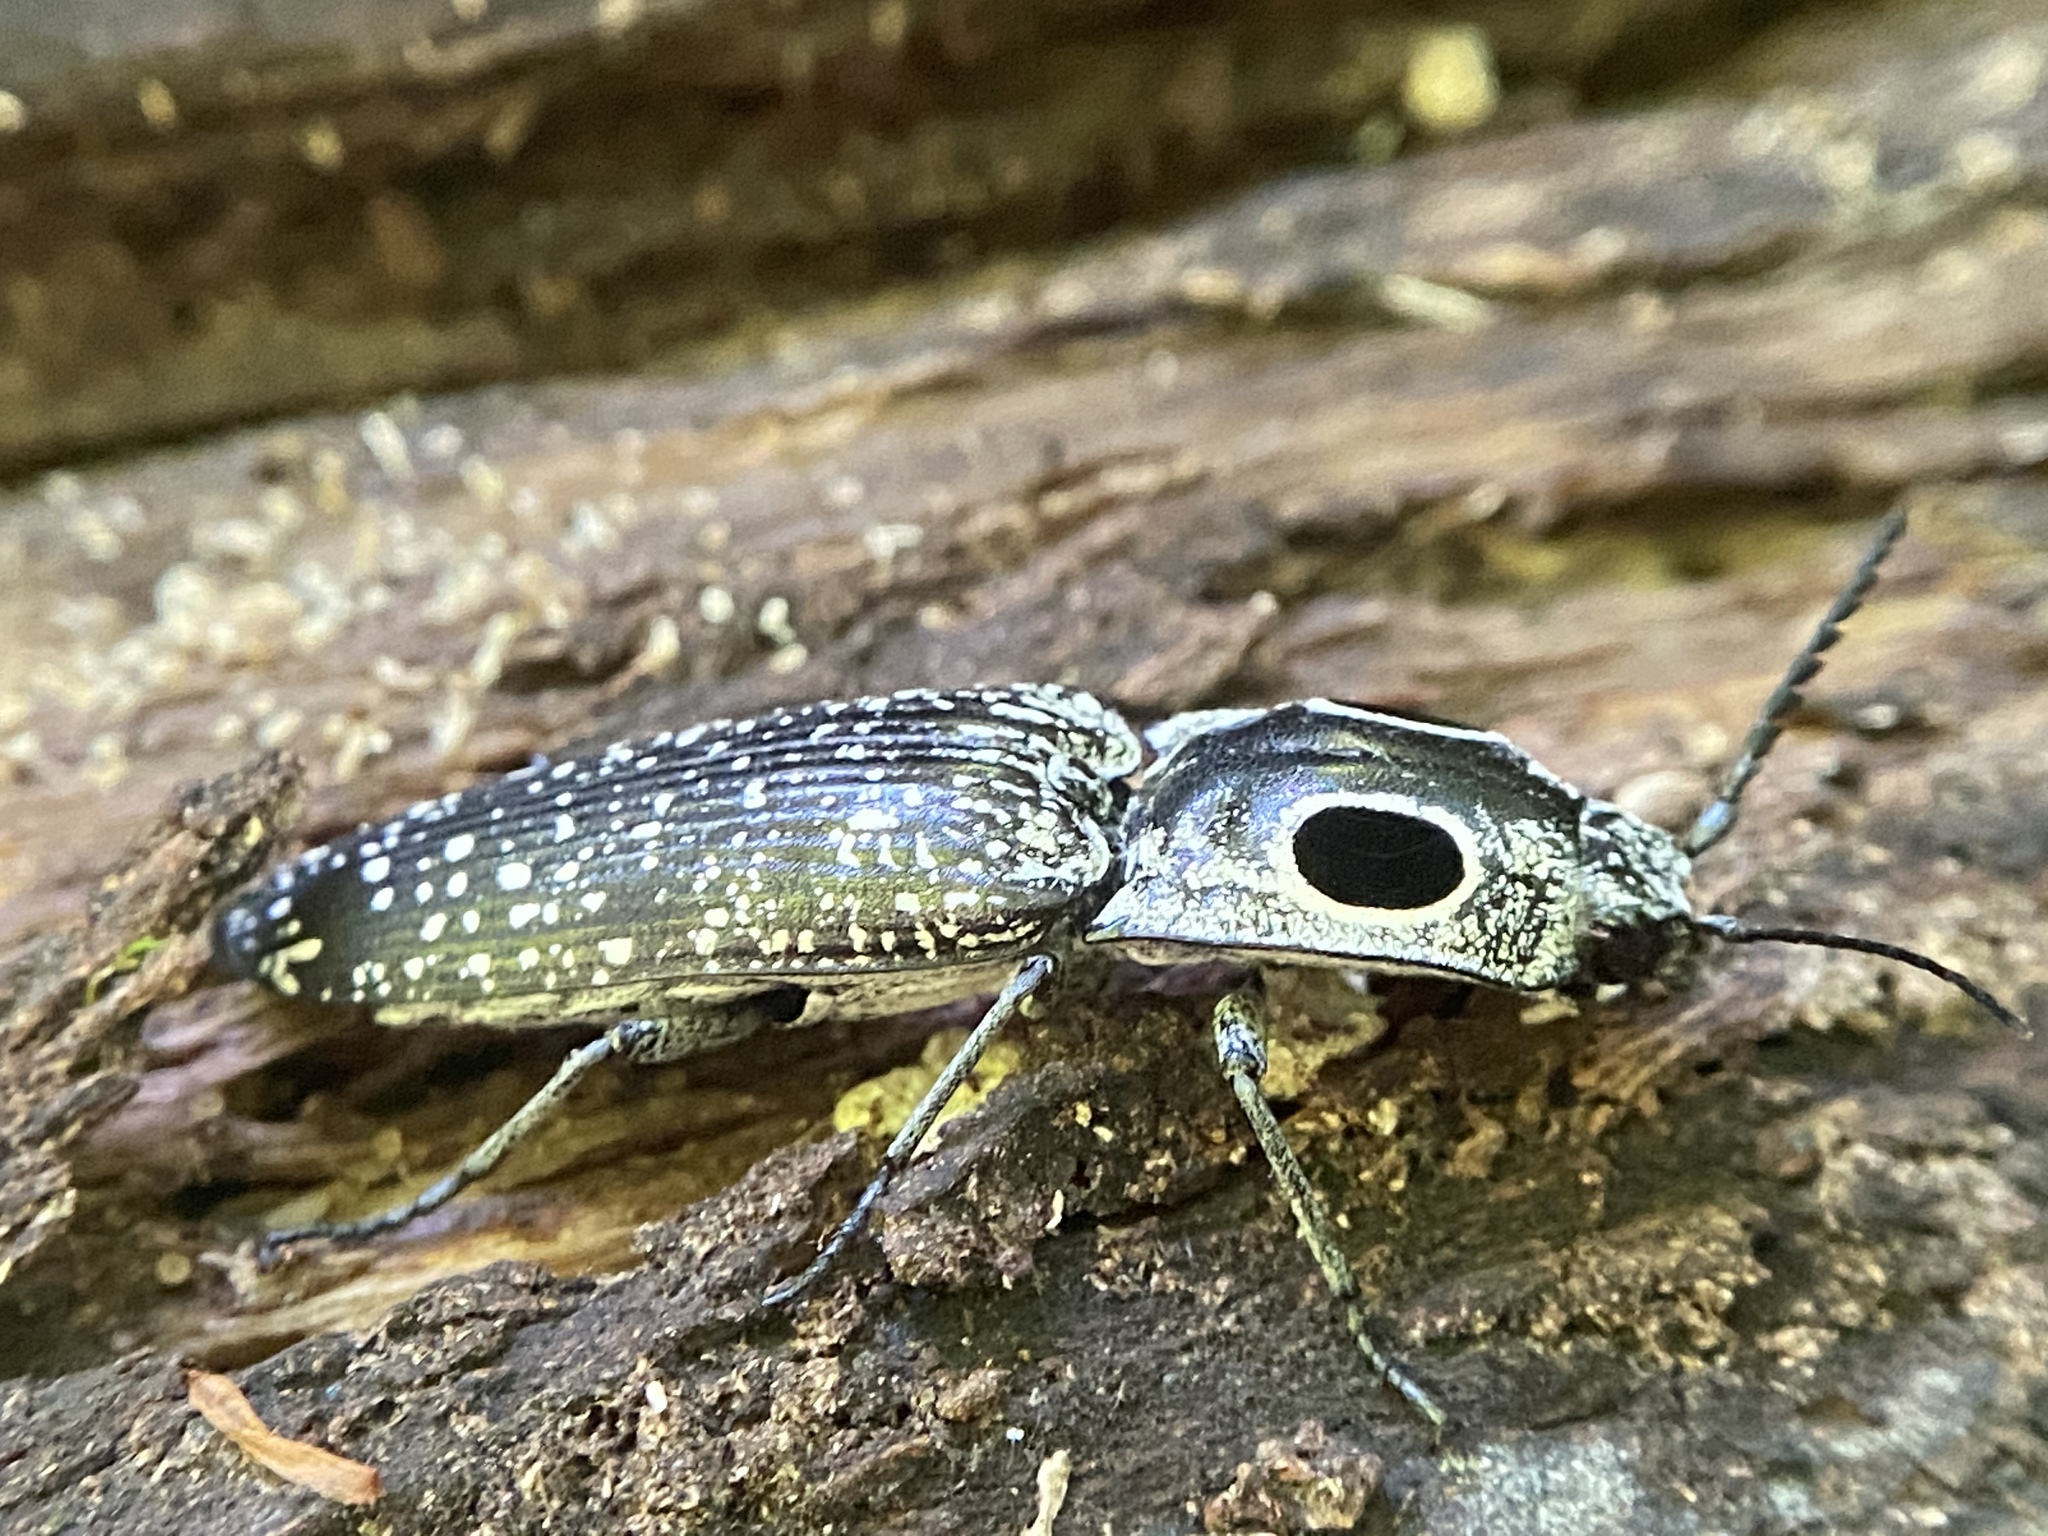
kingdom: Animalia
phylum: Arthropoda
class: Insecta
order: Coleoptera
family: Elateridae
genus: Alaus
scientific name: Alaus oculatus
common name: Eastern eyed click beetle
